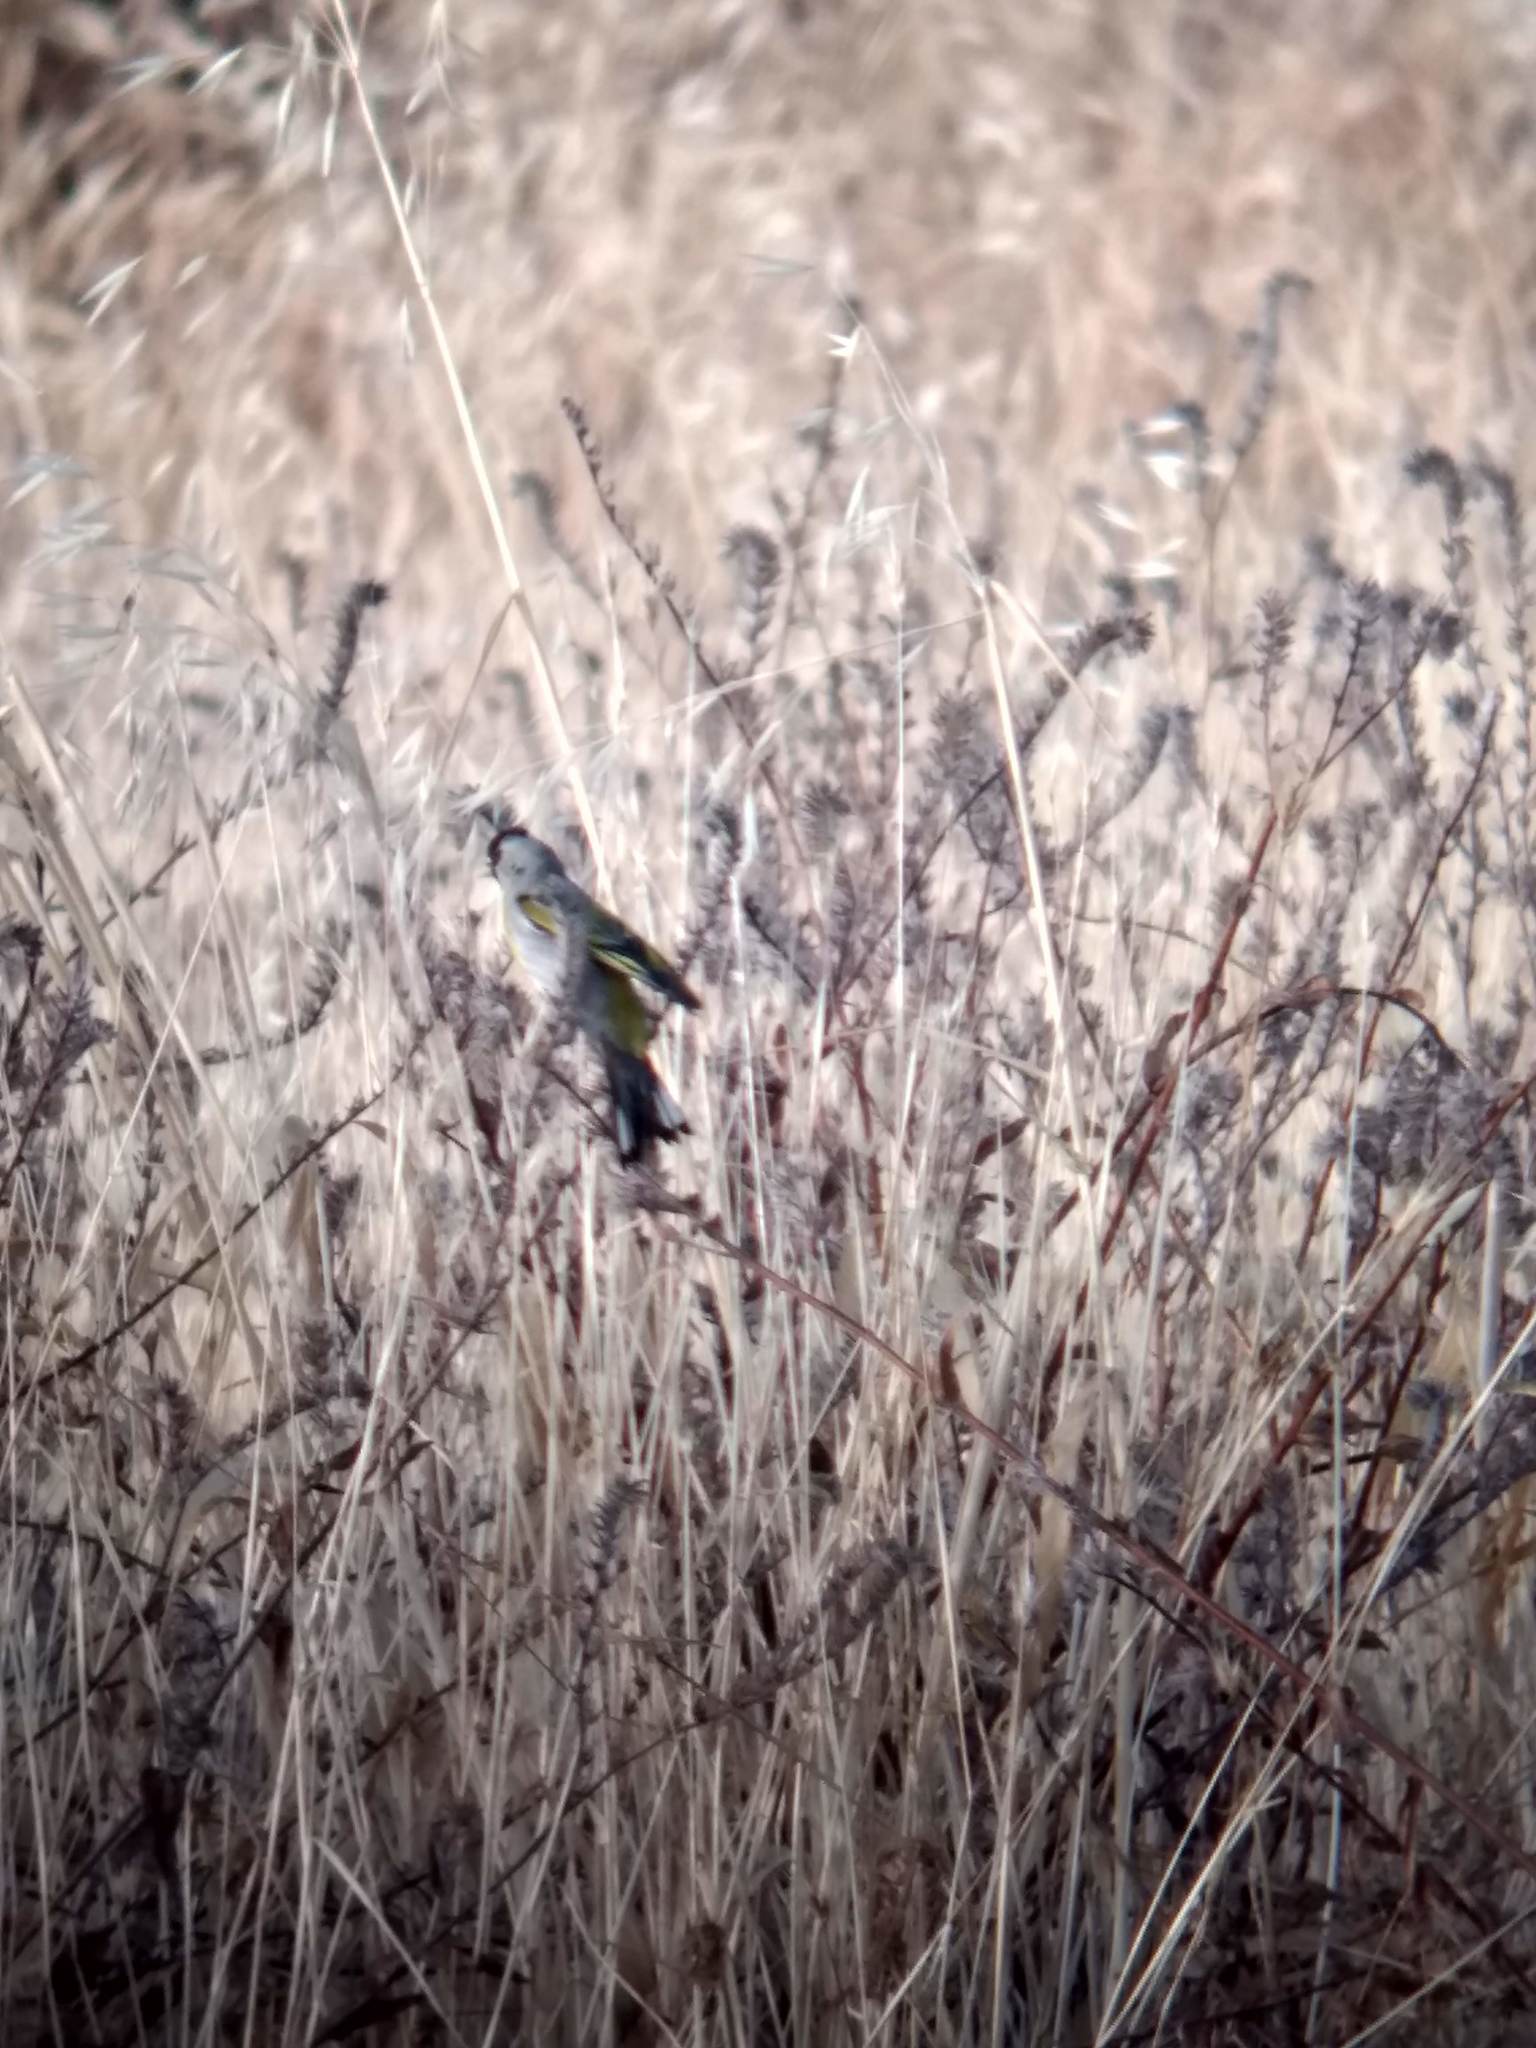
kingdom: Animalia
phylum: Chordata
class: Aves
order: Passeriformes
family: Fringillidae
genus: Spinus
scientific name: Spinus lawrencei
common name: Lawrence's goldfinch
